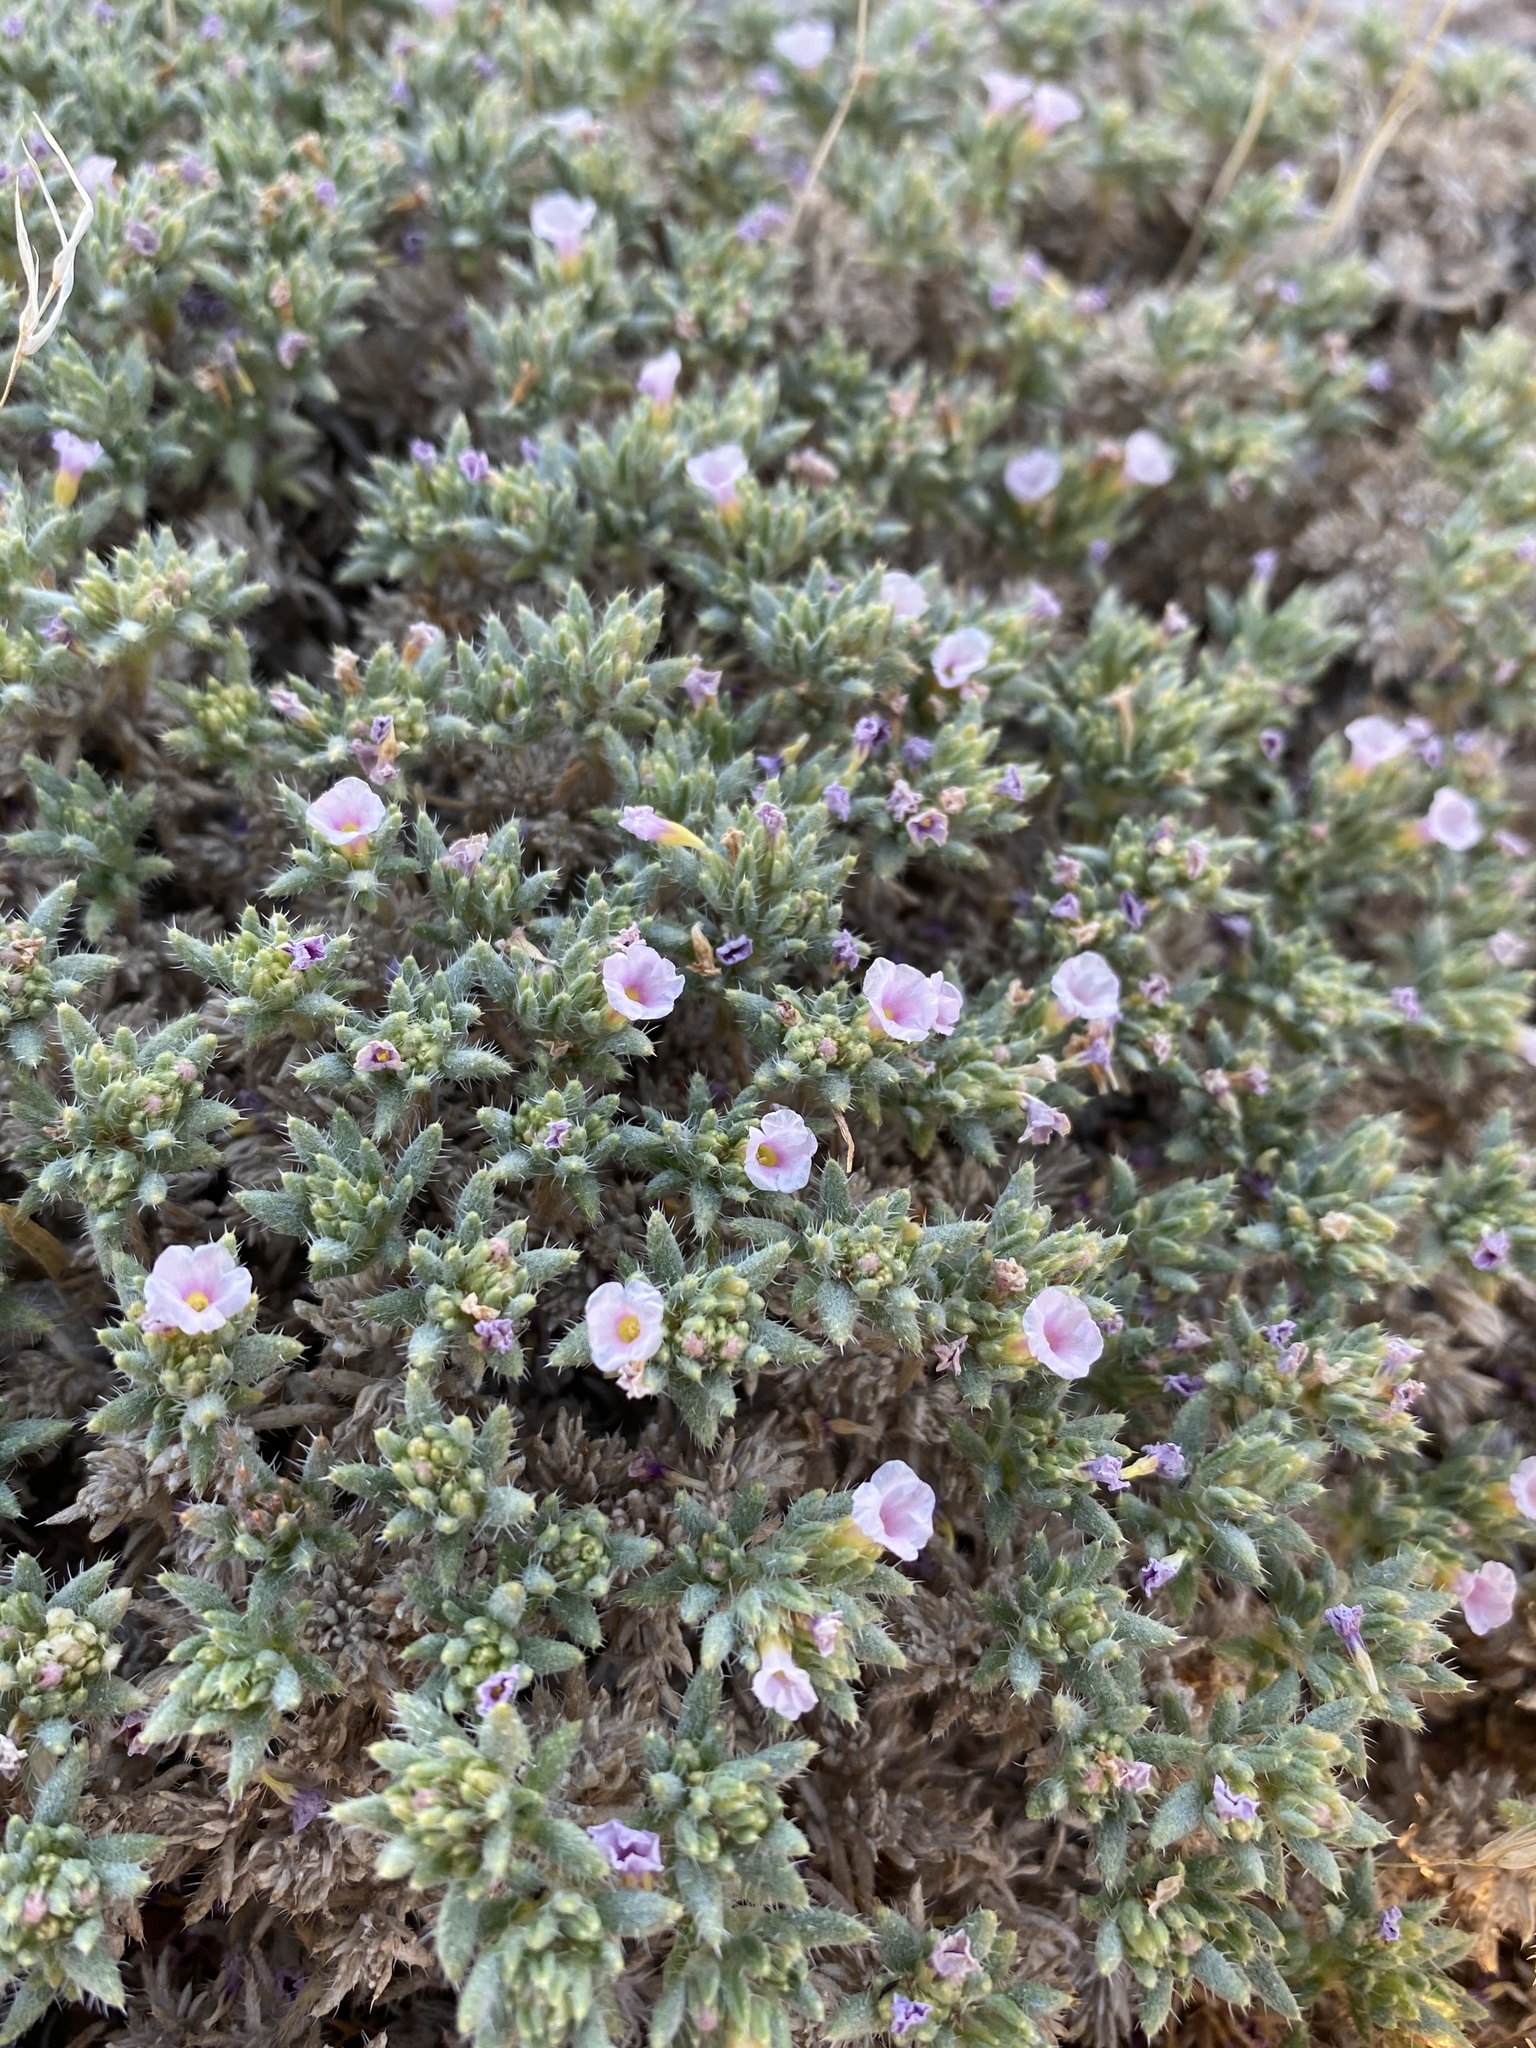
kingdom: Plantae
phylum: Tracheophyta
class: Magnoliopsida
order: Boraginales
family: Ehretiaceae
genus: Tiquilia
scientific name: Tiquilia latior
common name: Matted tiquilia
